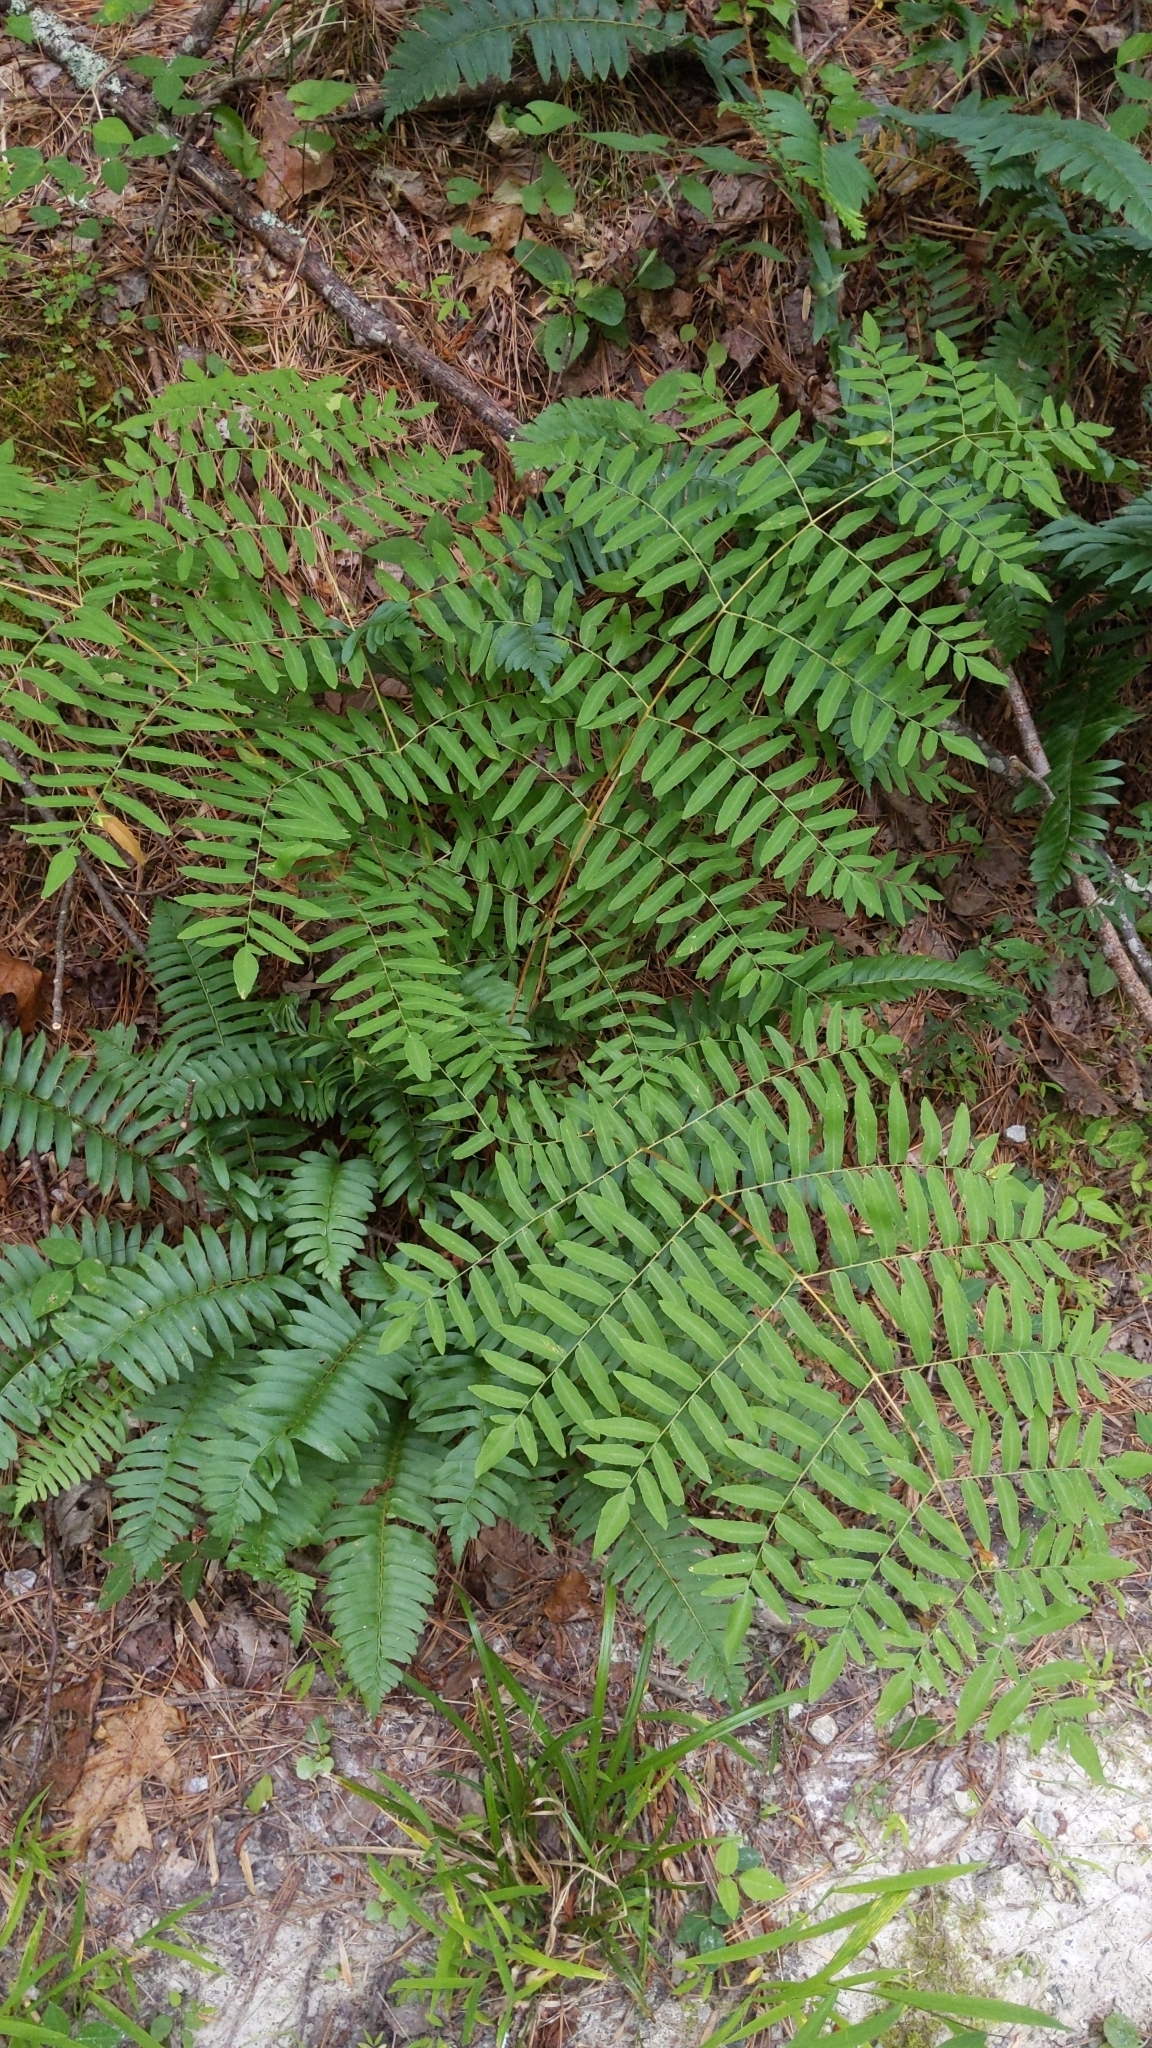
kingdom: Plantae
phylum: Tracheophyta
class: Polypodiopsida
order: Osmundales
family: Osmundaceae
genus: Osmunda
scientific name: Osmunda spectabilis
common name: American royal fern
